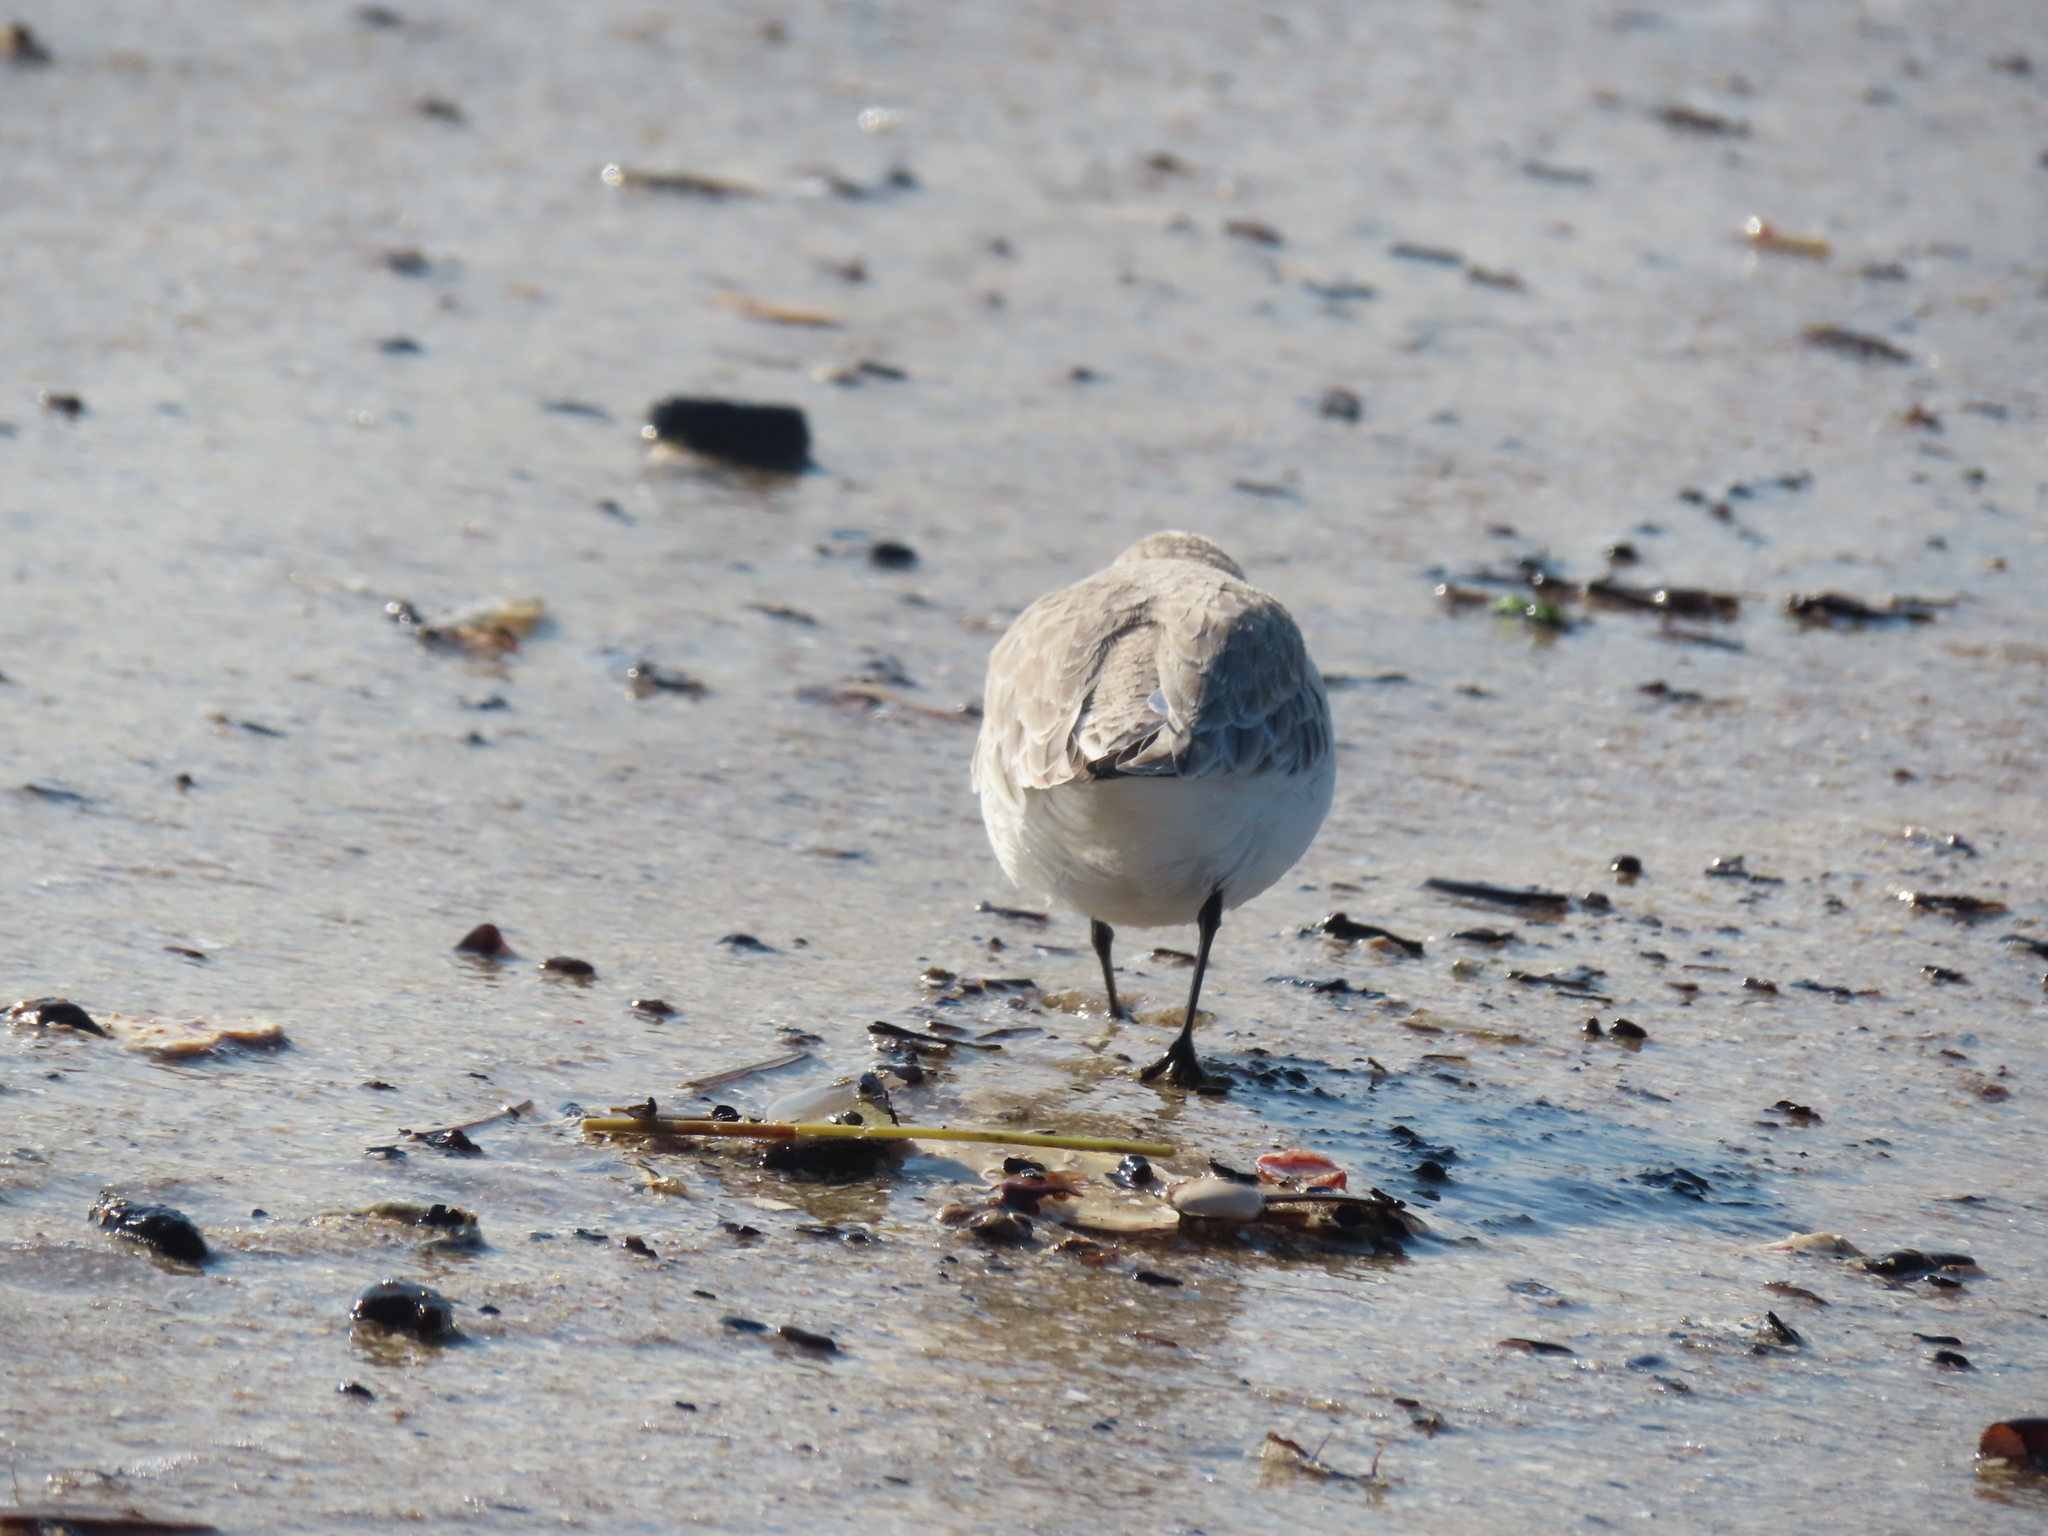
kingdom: Animalia
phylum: Chordata
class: Aves
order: Charadriiformes
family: Scolopacidae
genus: Calidris
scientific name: Calidris alba
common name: Sanderling
